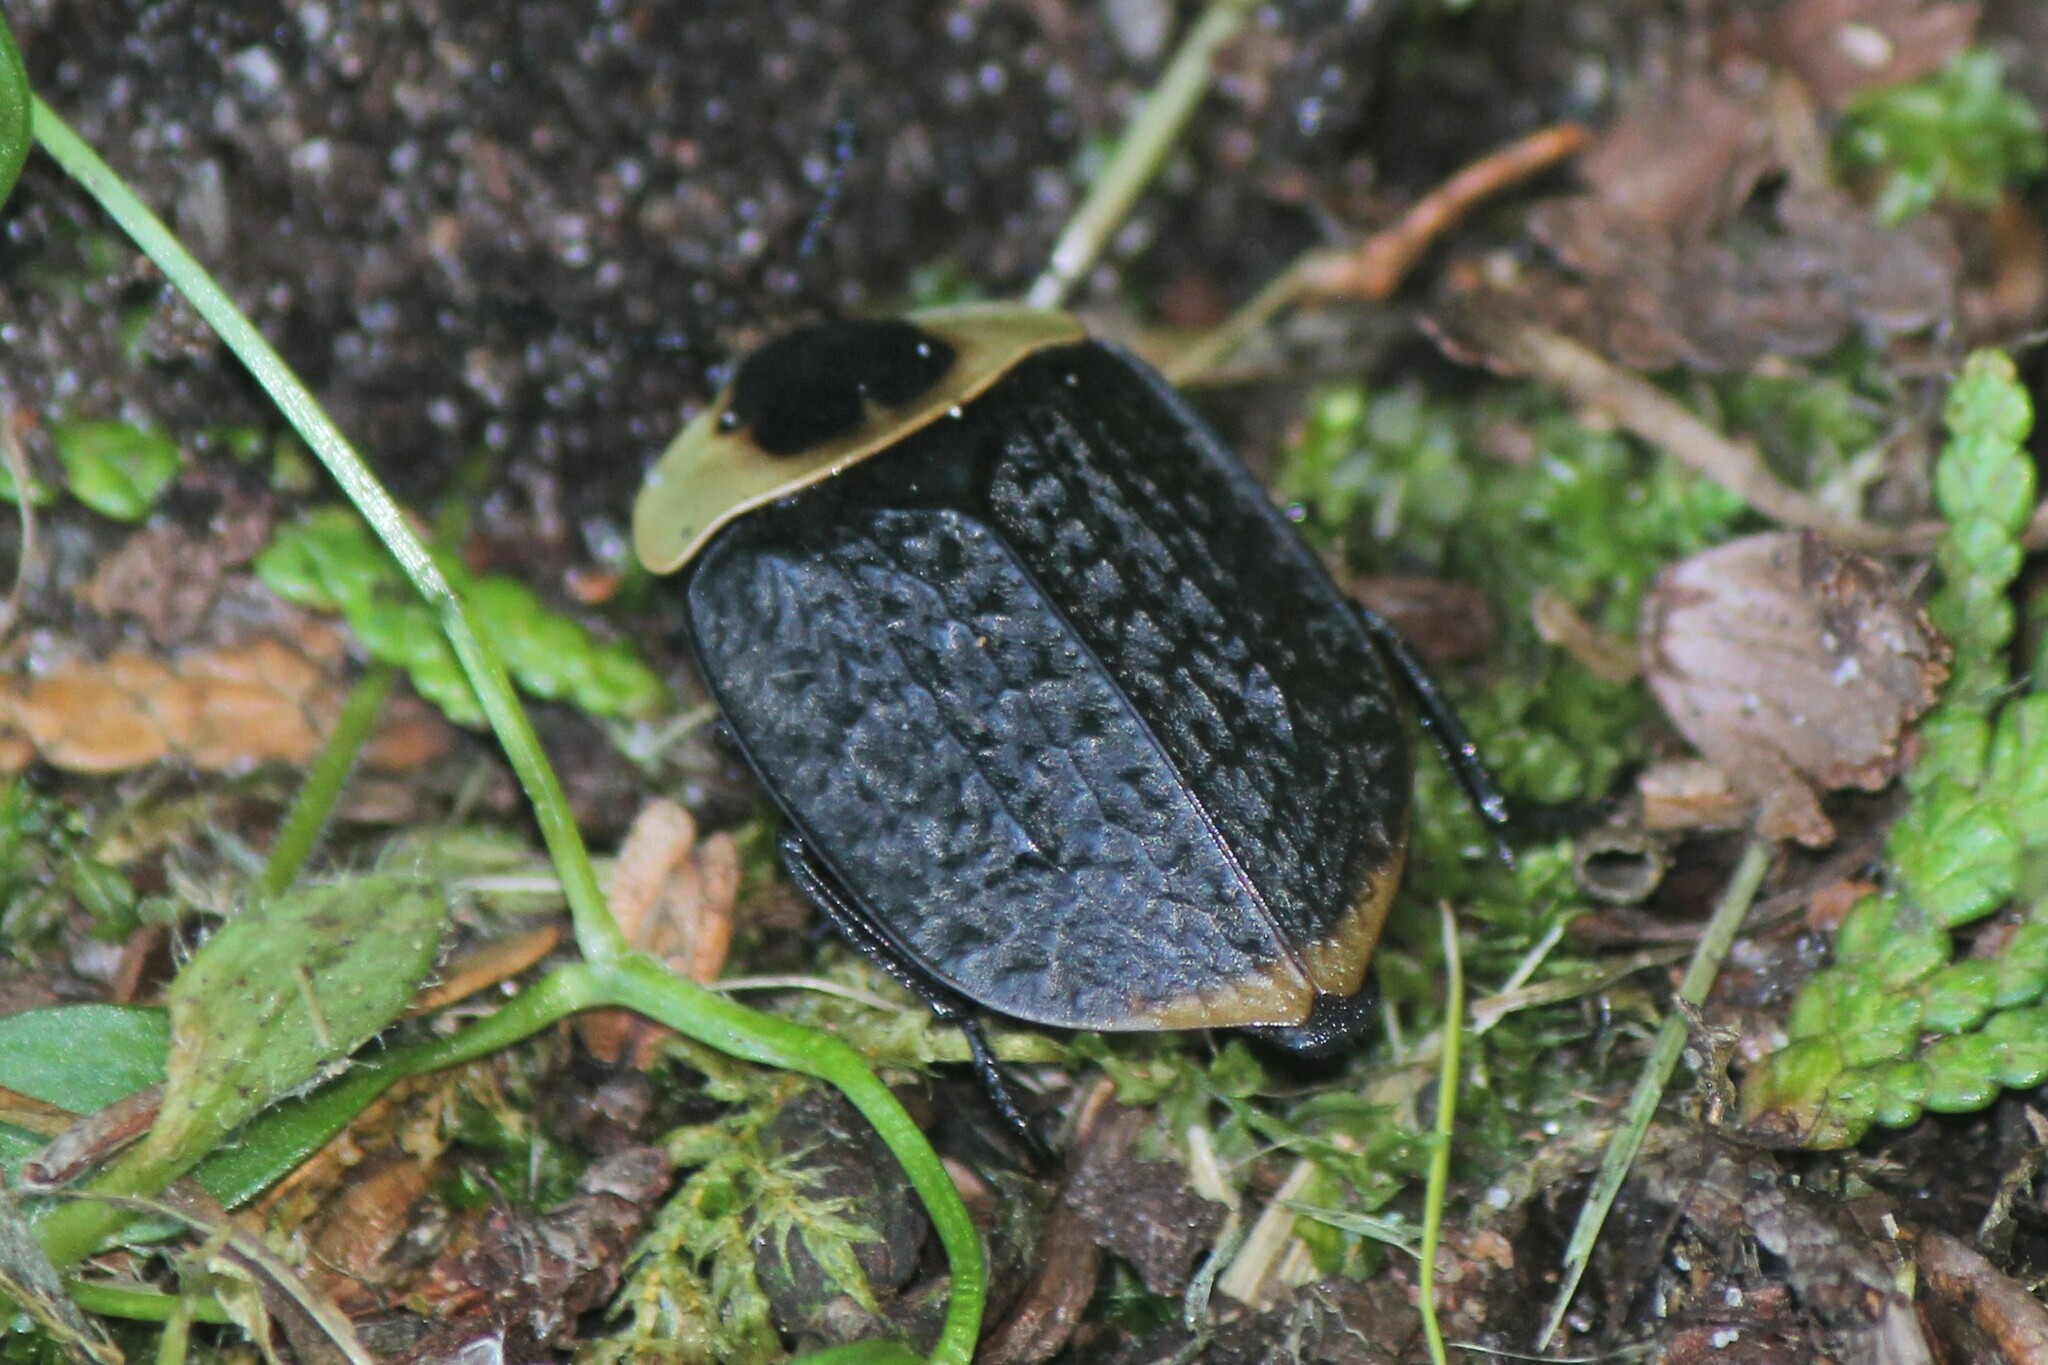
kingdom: Animalia
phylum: Arthropoda
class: Insecta
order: Coleoptera
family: Staphylinidae
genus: Necrophila
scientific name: Necrophila americana
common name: American carrion beetle
